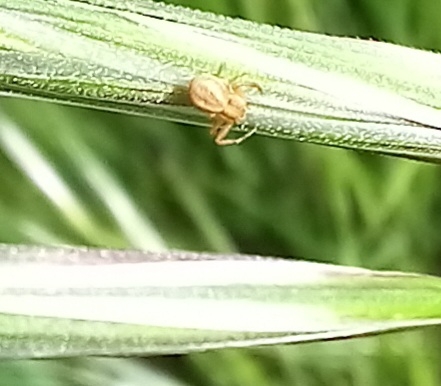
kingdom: Animalia
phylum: Arthropoda
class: Arachnida
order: Araneae
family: Thomisidae
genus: Runcinia
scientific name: Runcinia grammica
